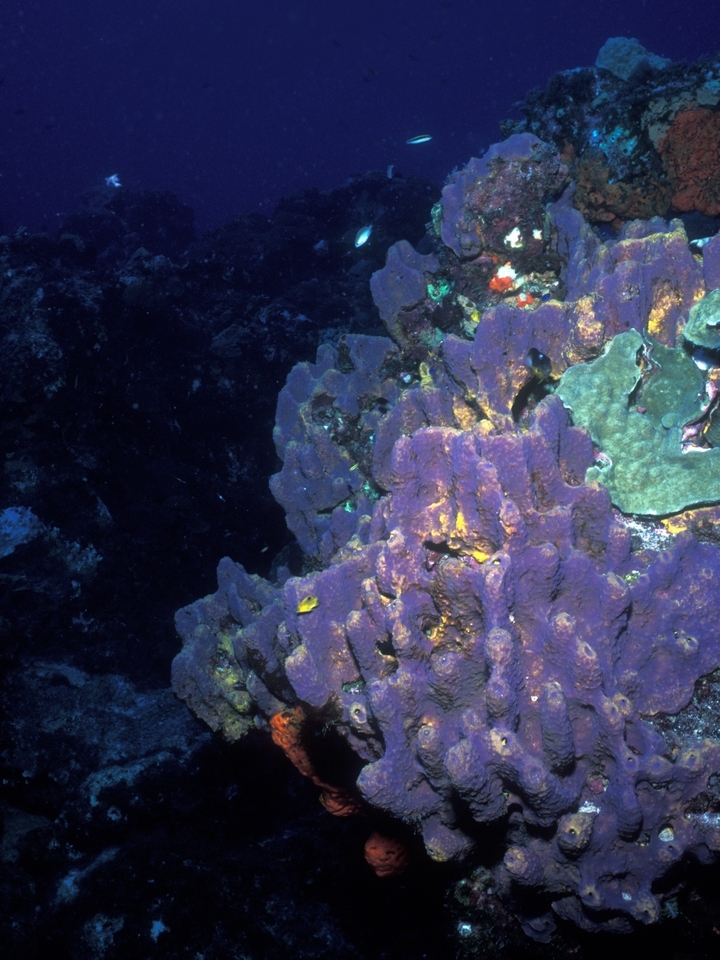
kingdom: Animalia
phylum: Porifera
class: Demospongiae
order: Verongiida
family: Aplysinidae
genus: Aiolochroia
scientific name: Aiolochroia crassa
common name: Branching tube sponge
